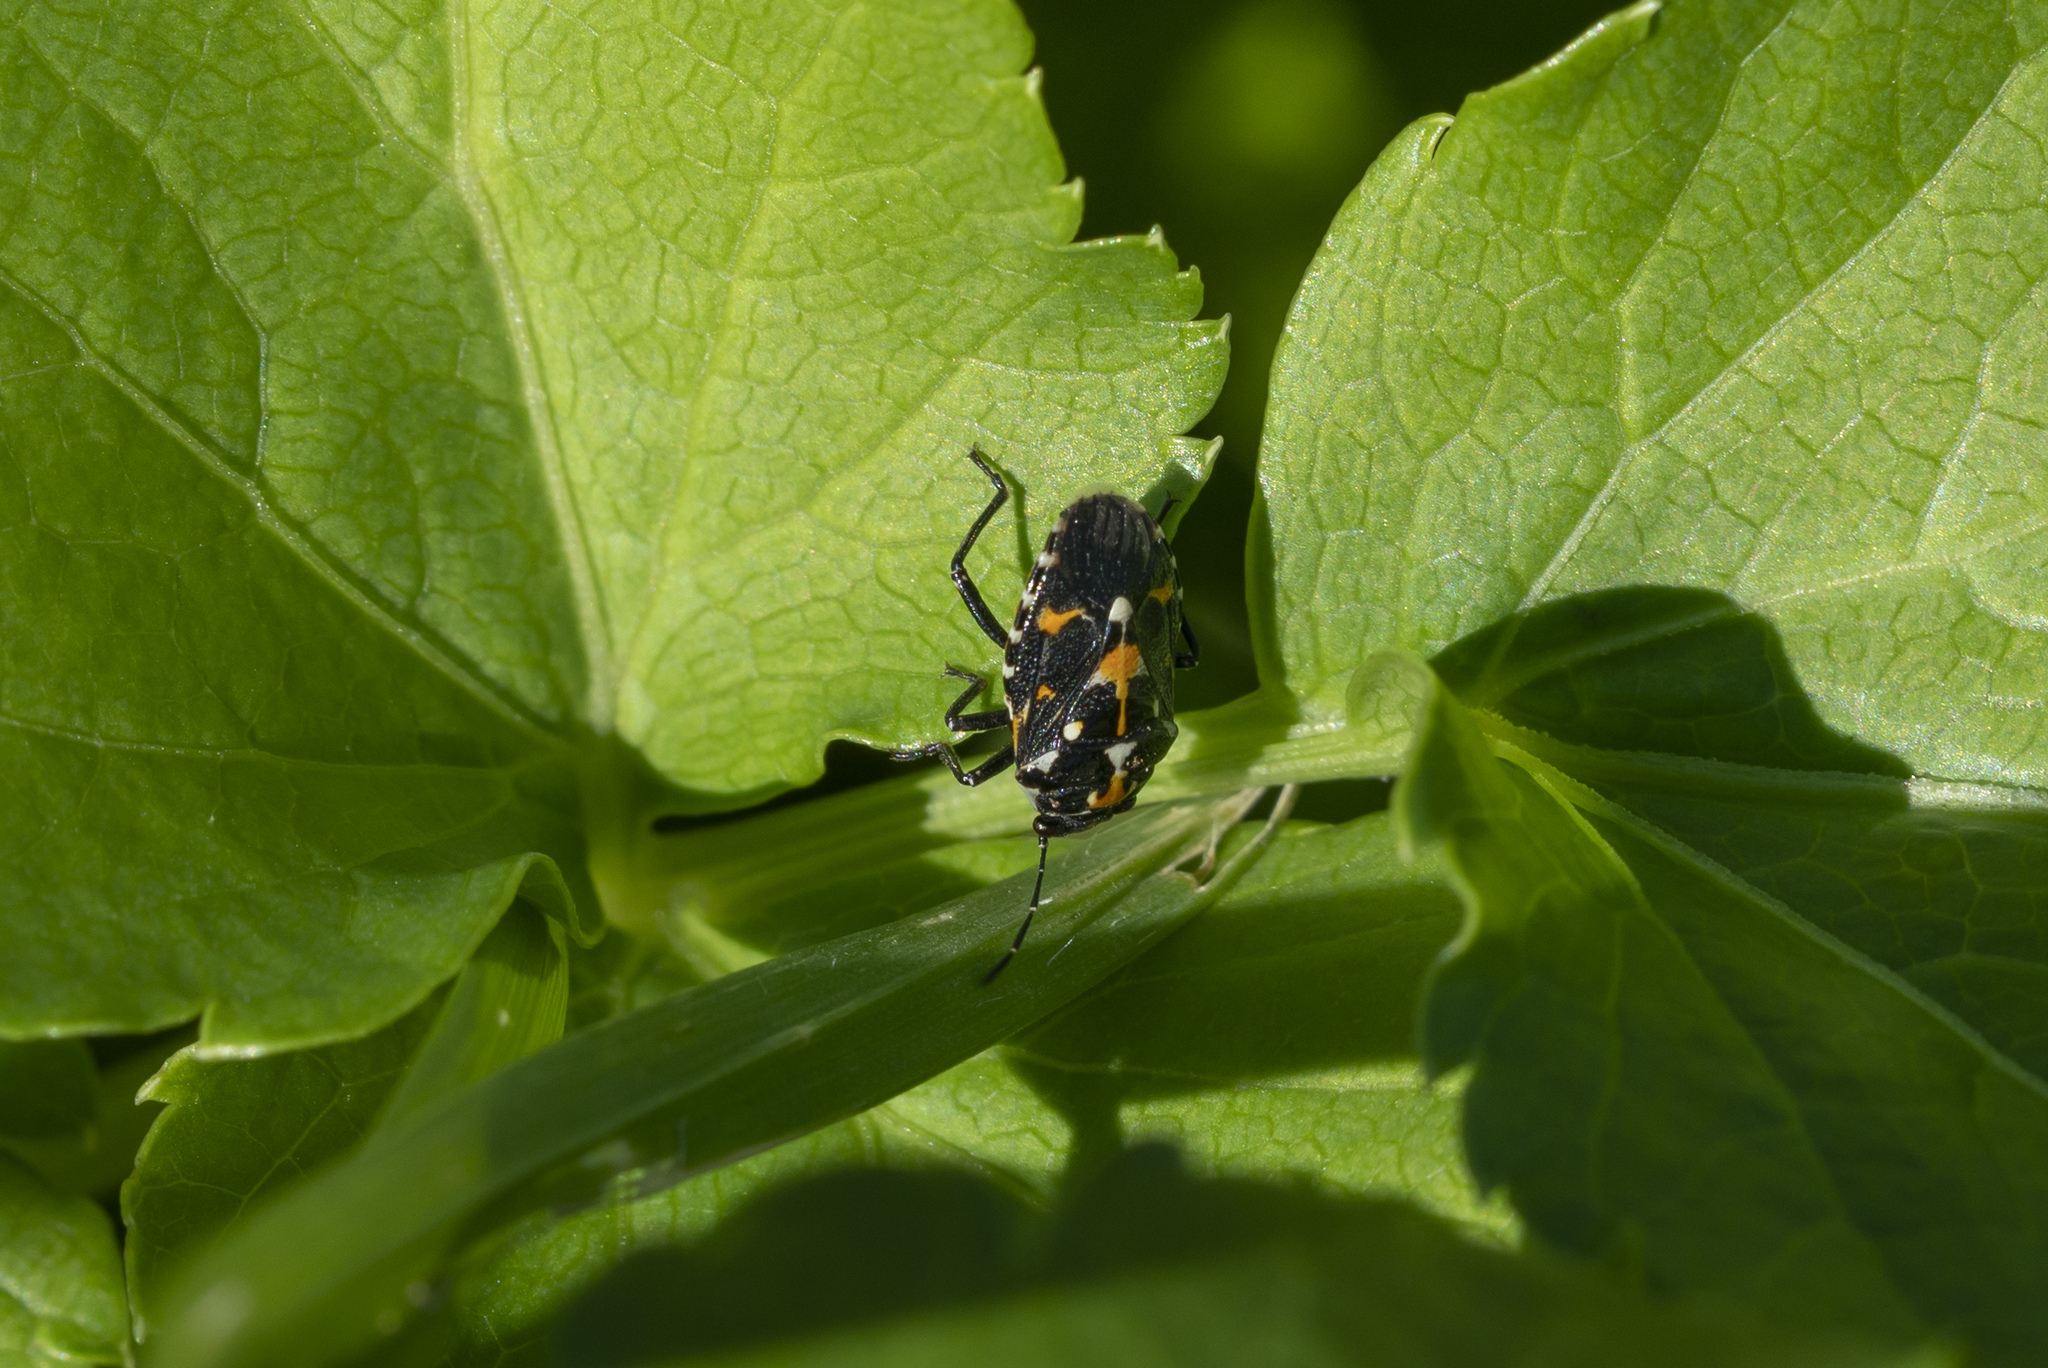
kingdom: Animalia
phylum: Arthropoda
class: Insecta
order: Hemiptera
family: Pentatomidae
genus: Stenozygum
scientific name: Stenozygum coloratum
